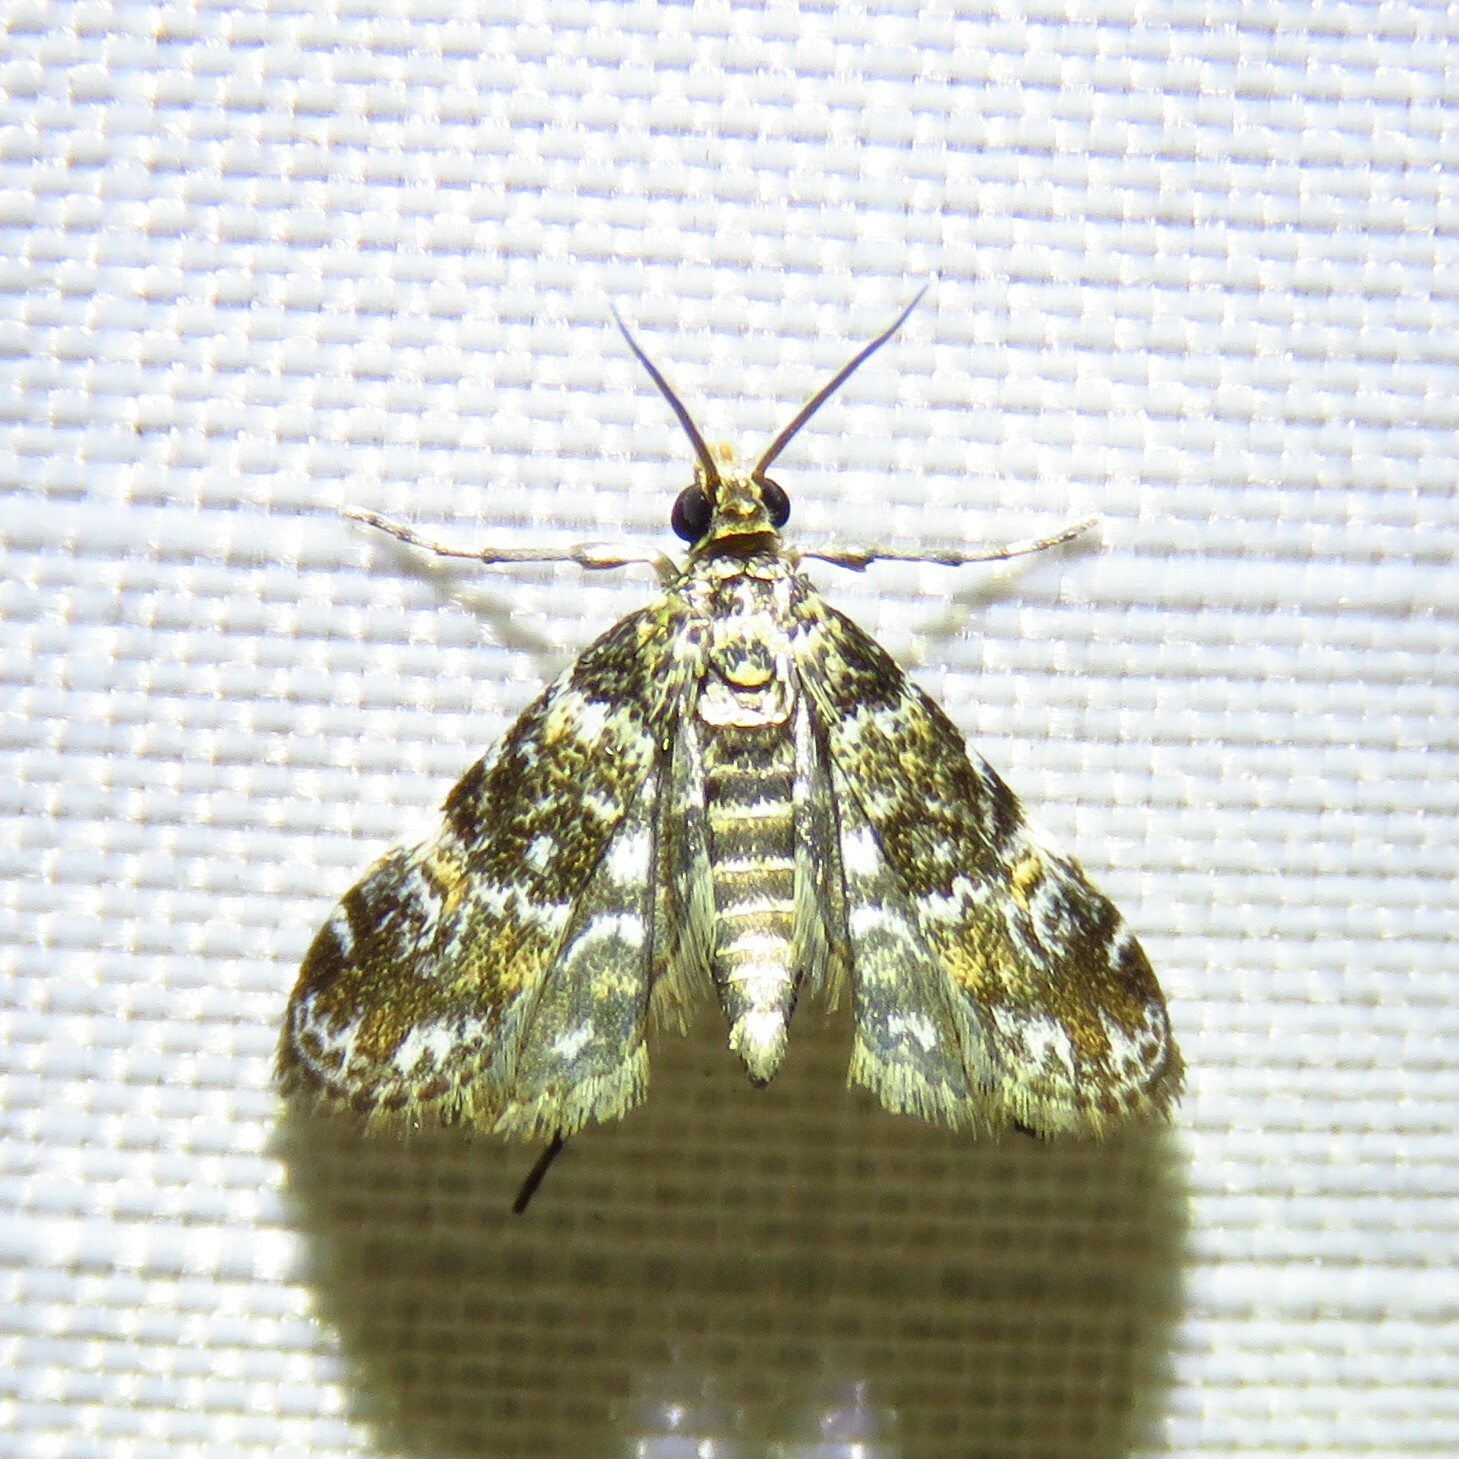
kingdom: Animalia
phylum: Arthropoda
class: Insecta
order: Lepidoptera
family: Crambidae
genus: Elophila
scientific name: Elophila obliteralis
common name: Waterlily leafcutter moth
